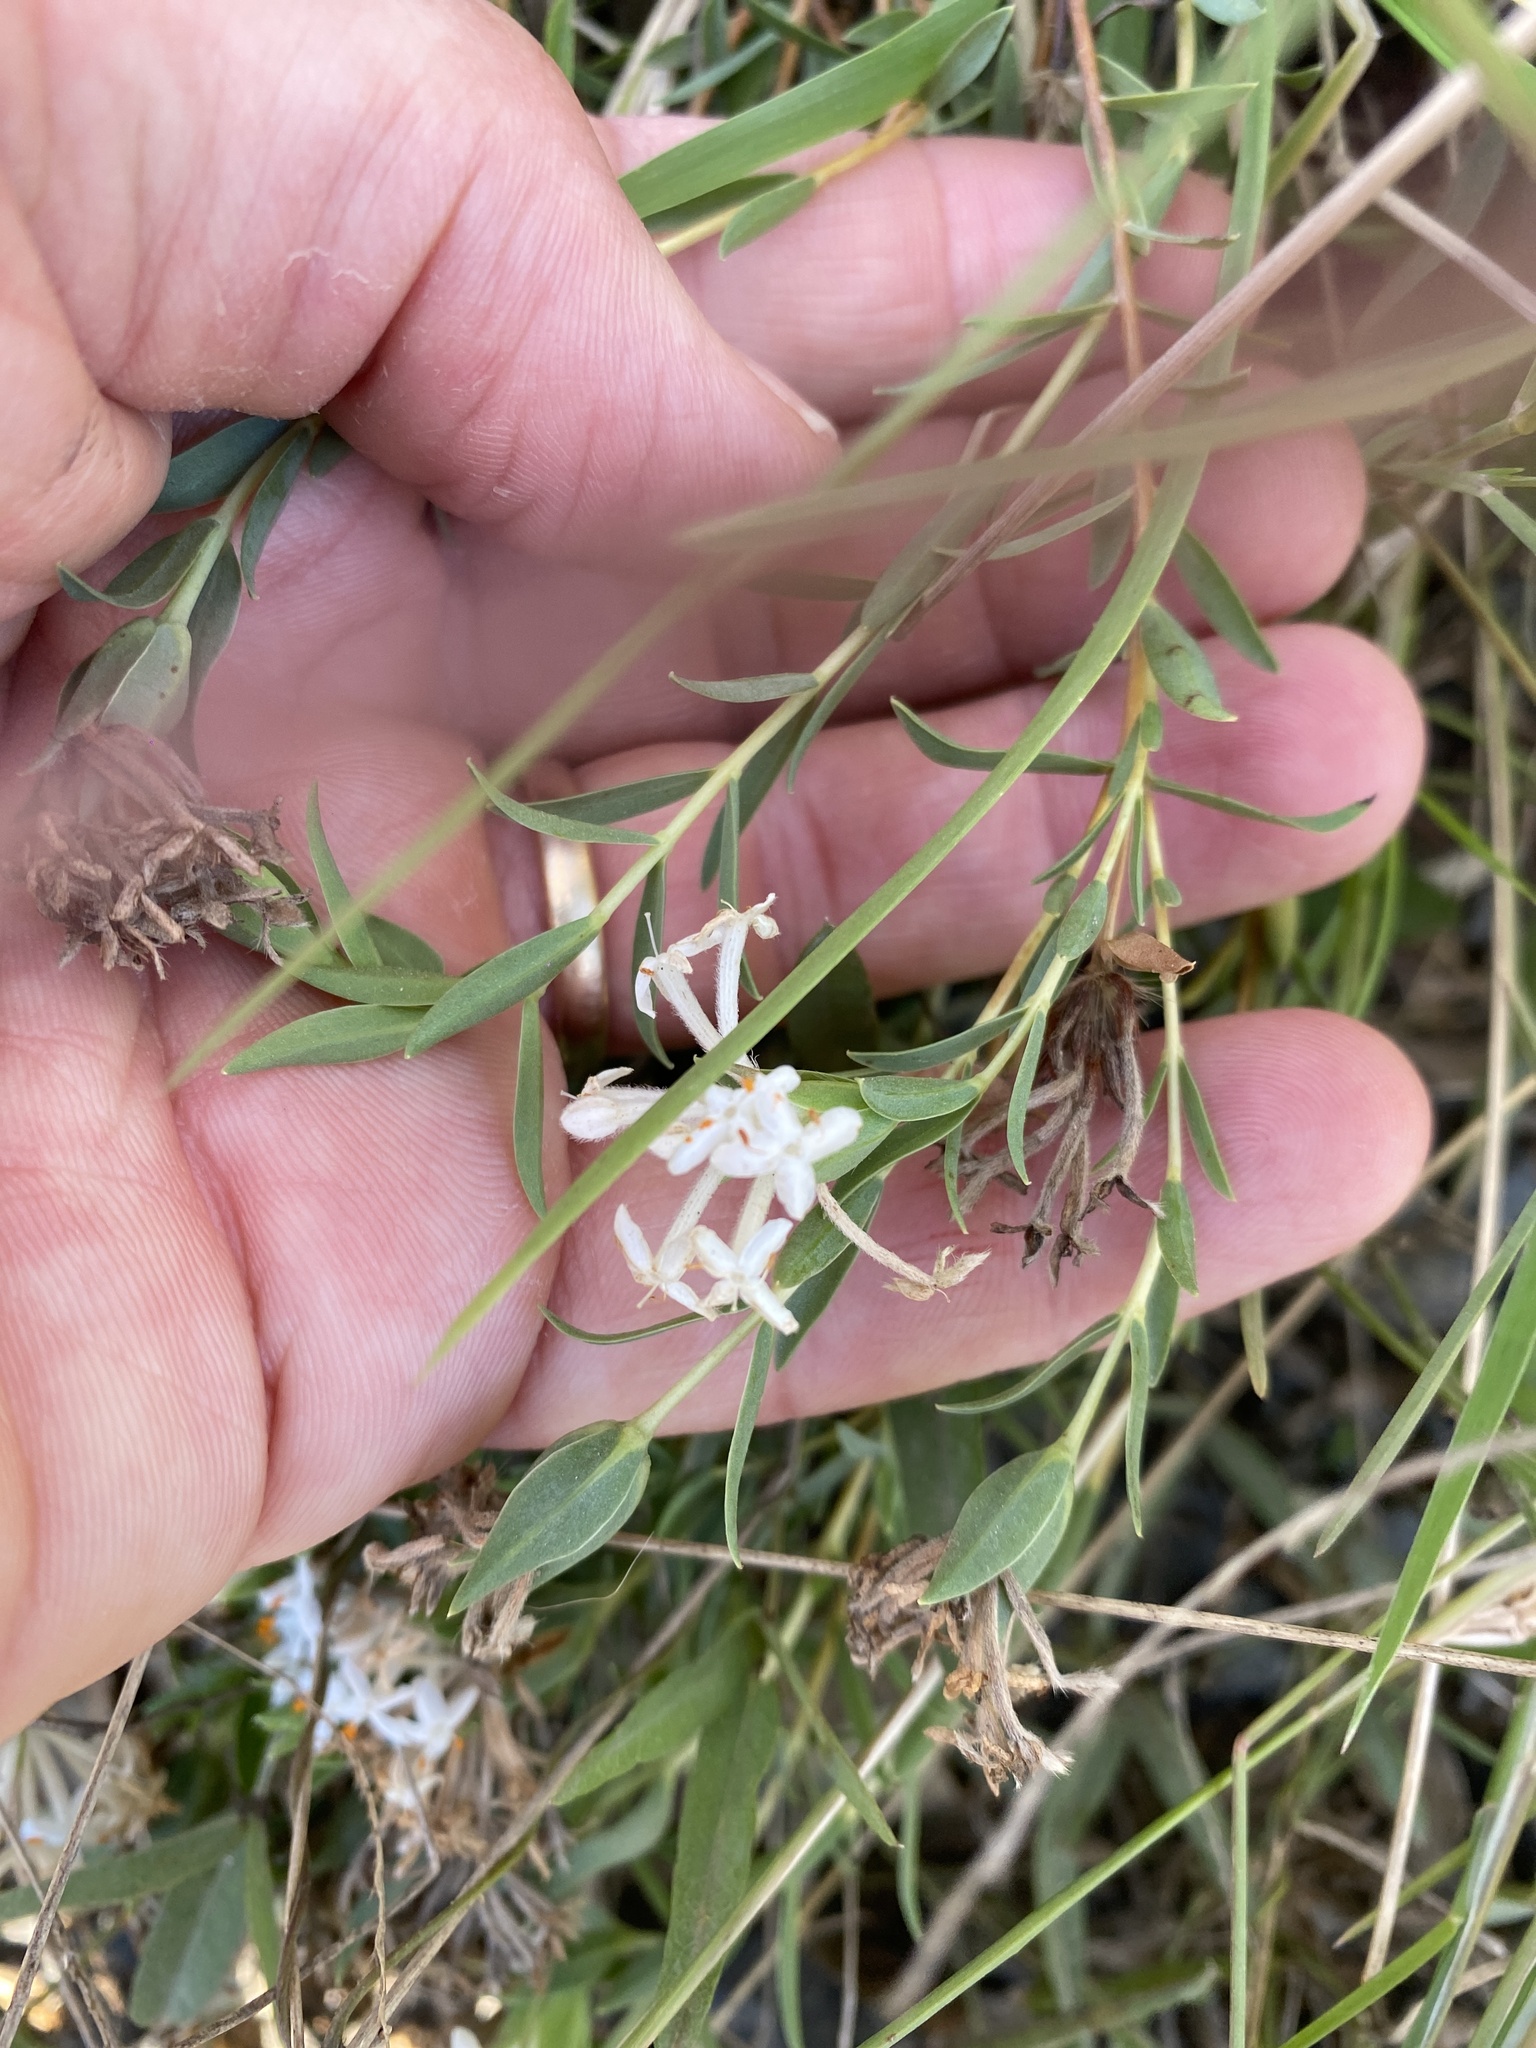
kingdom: Plantae
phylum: Tracheophyta
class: Magnoliopsida
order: Malvales
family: Thymelaeaceae
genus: Pimelea
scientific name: Pimelea linifolia
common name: Queen-of-the-bush
